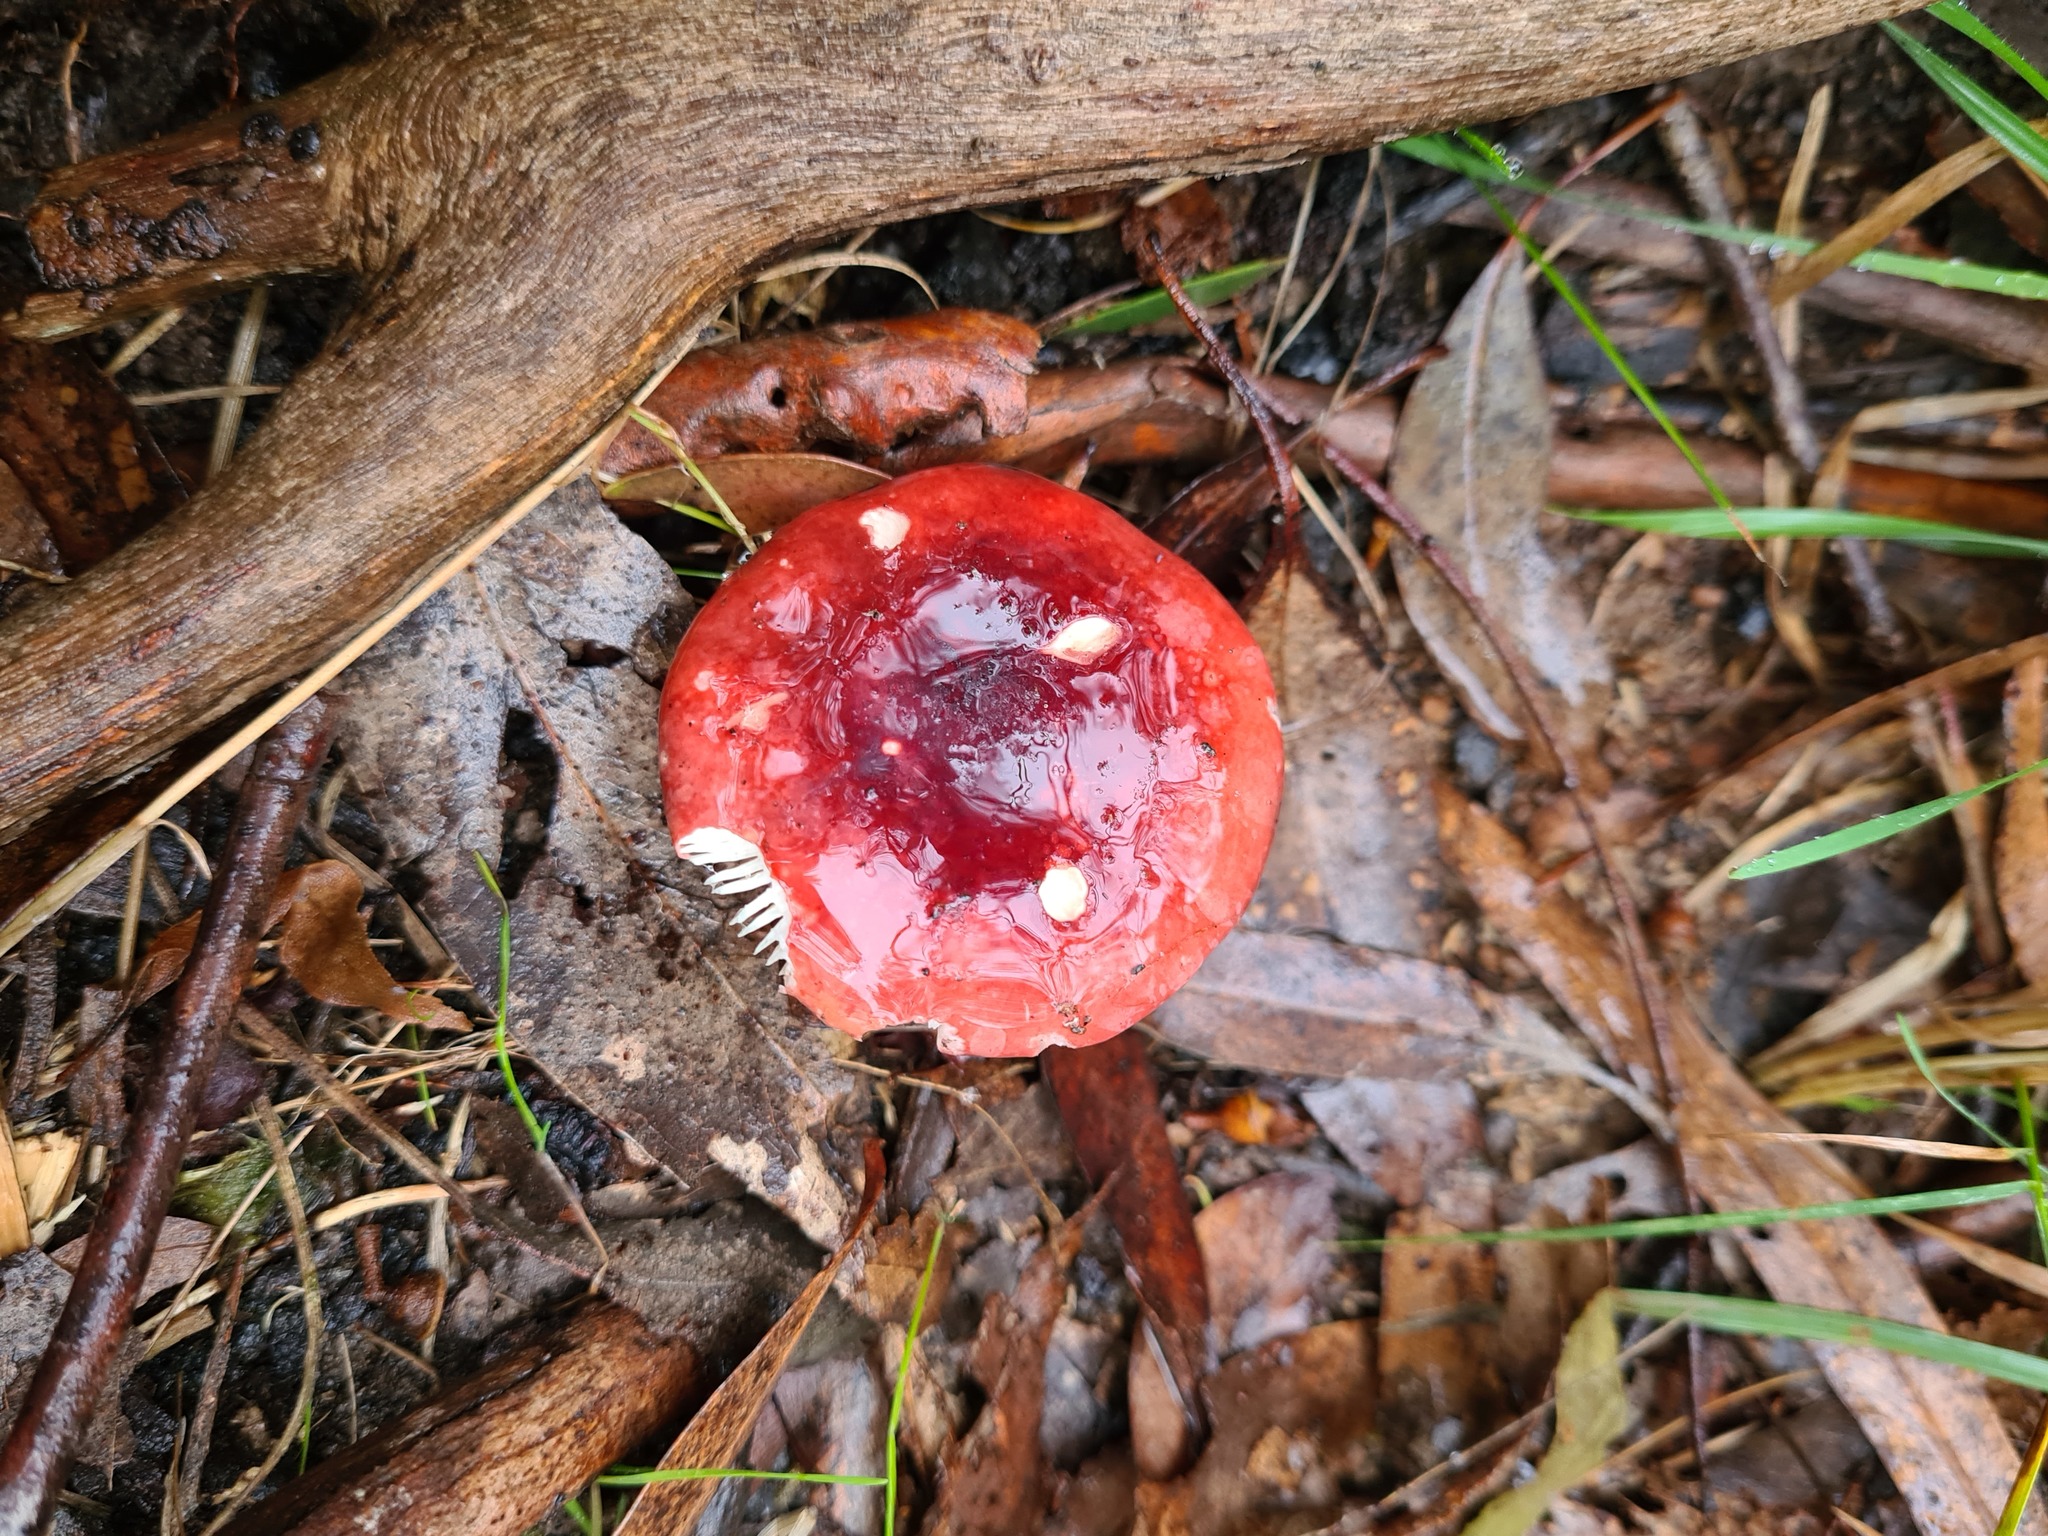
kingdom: Fungi
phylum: Basidiomycota
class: Agaricomycetes
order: Russulales
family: Russulaceae
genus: Russula
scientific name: Russula persanguinea
